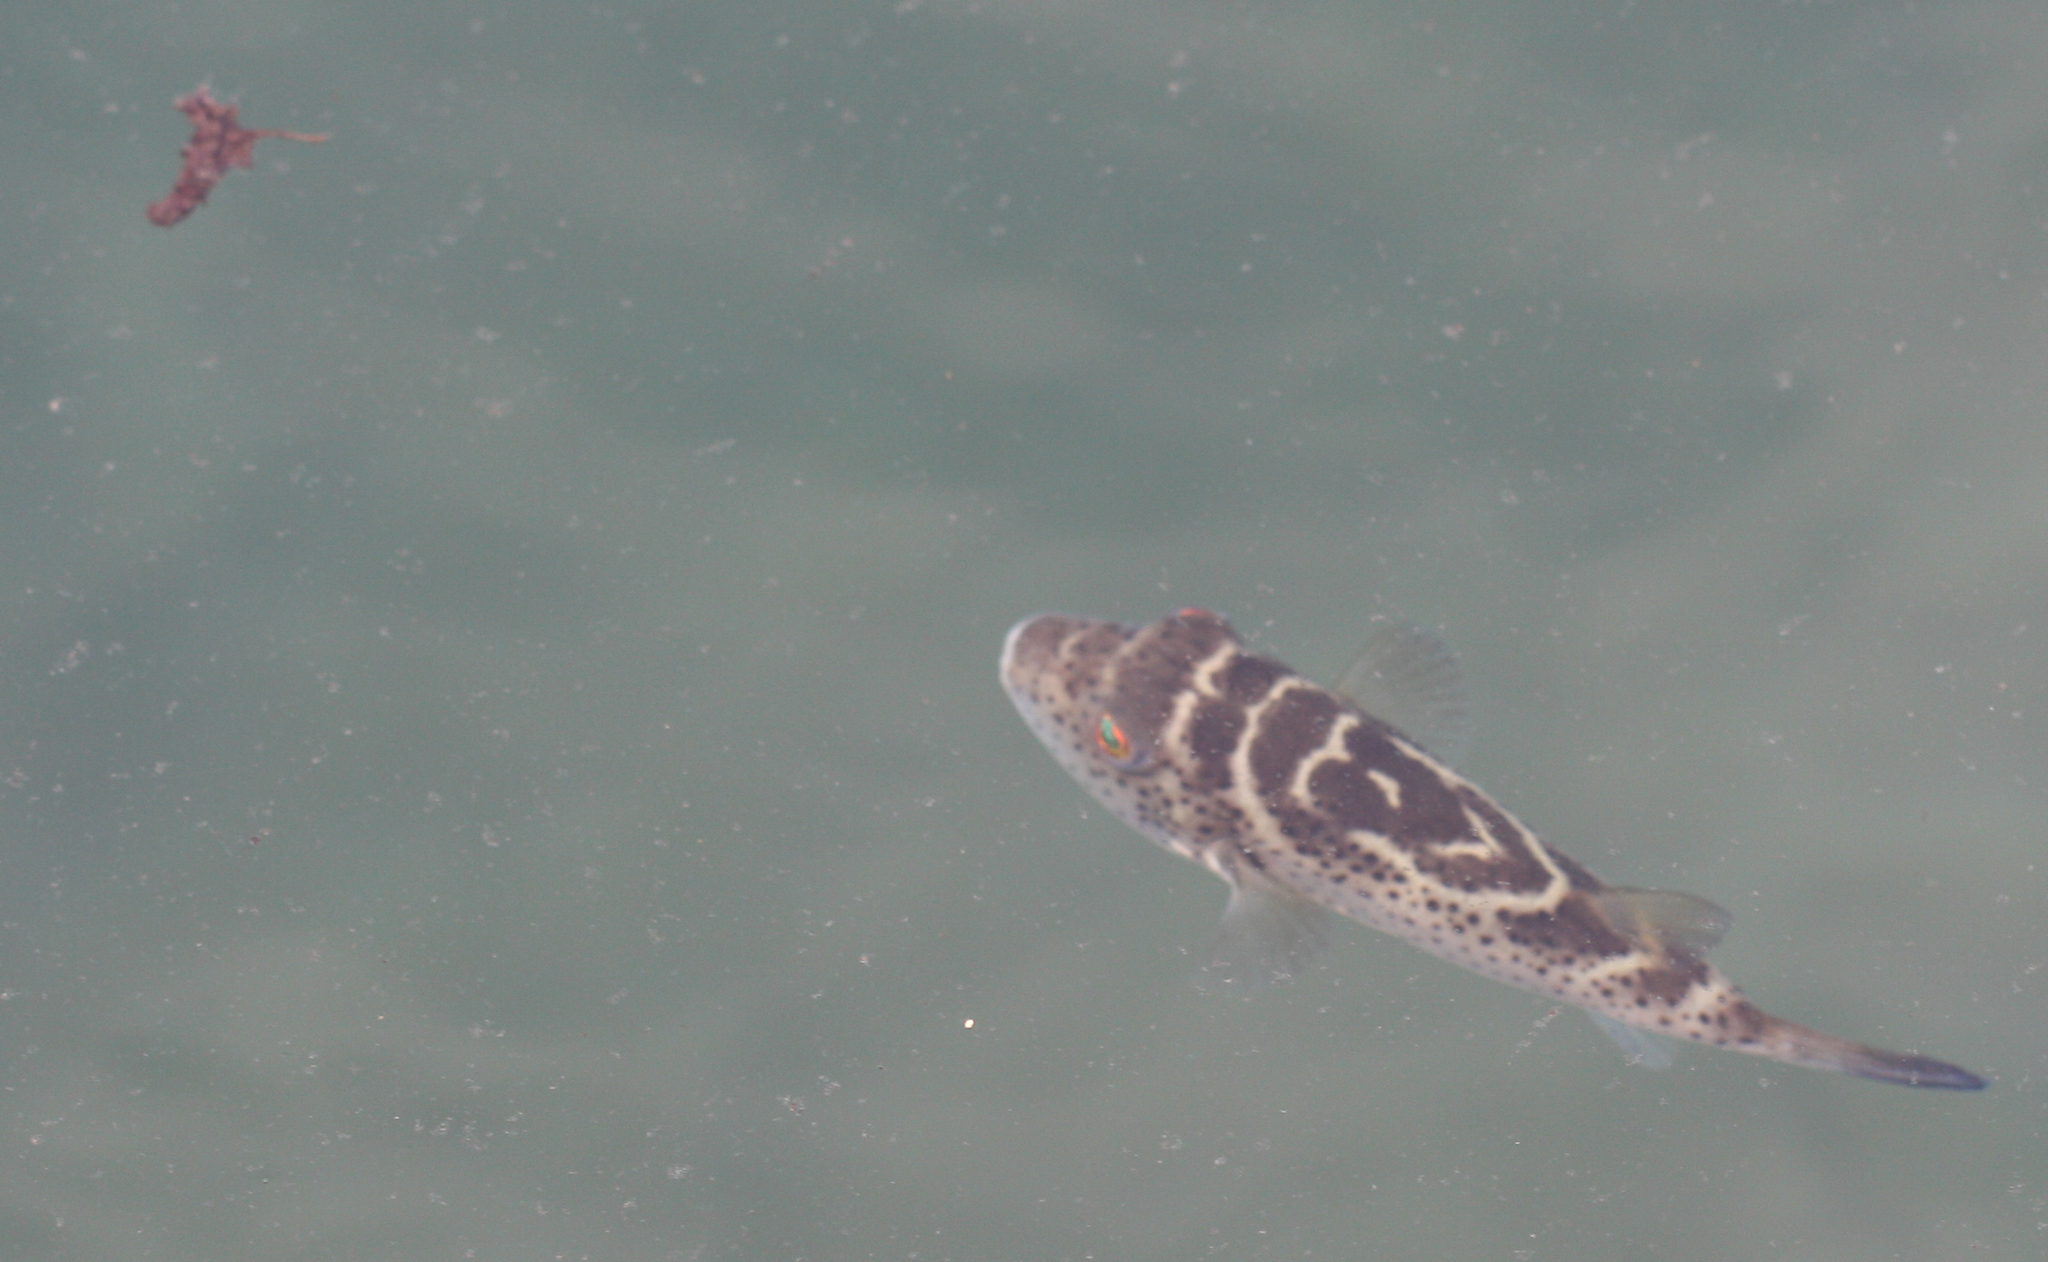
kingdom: Animalia
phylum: Chordata
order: Tetraodontiformes
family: Tetraodontidae
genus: Sphoeroides
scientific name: Sphoeroides annulatus
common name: Bullseye puffer
